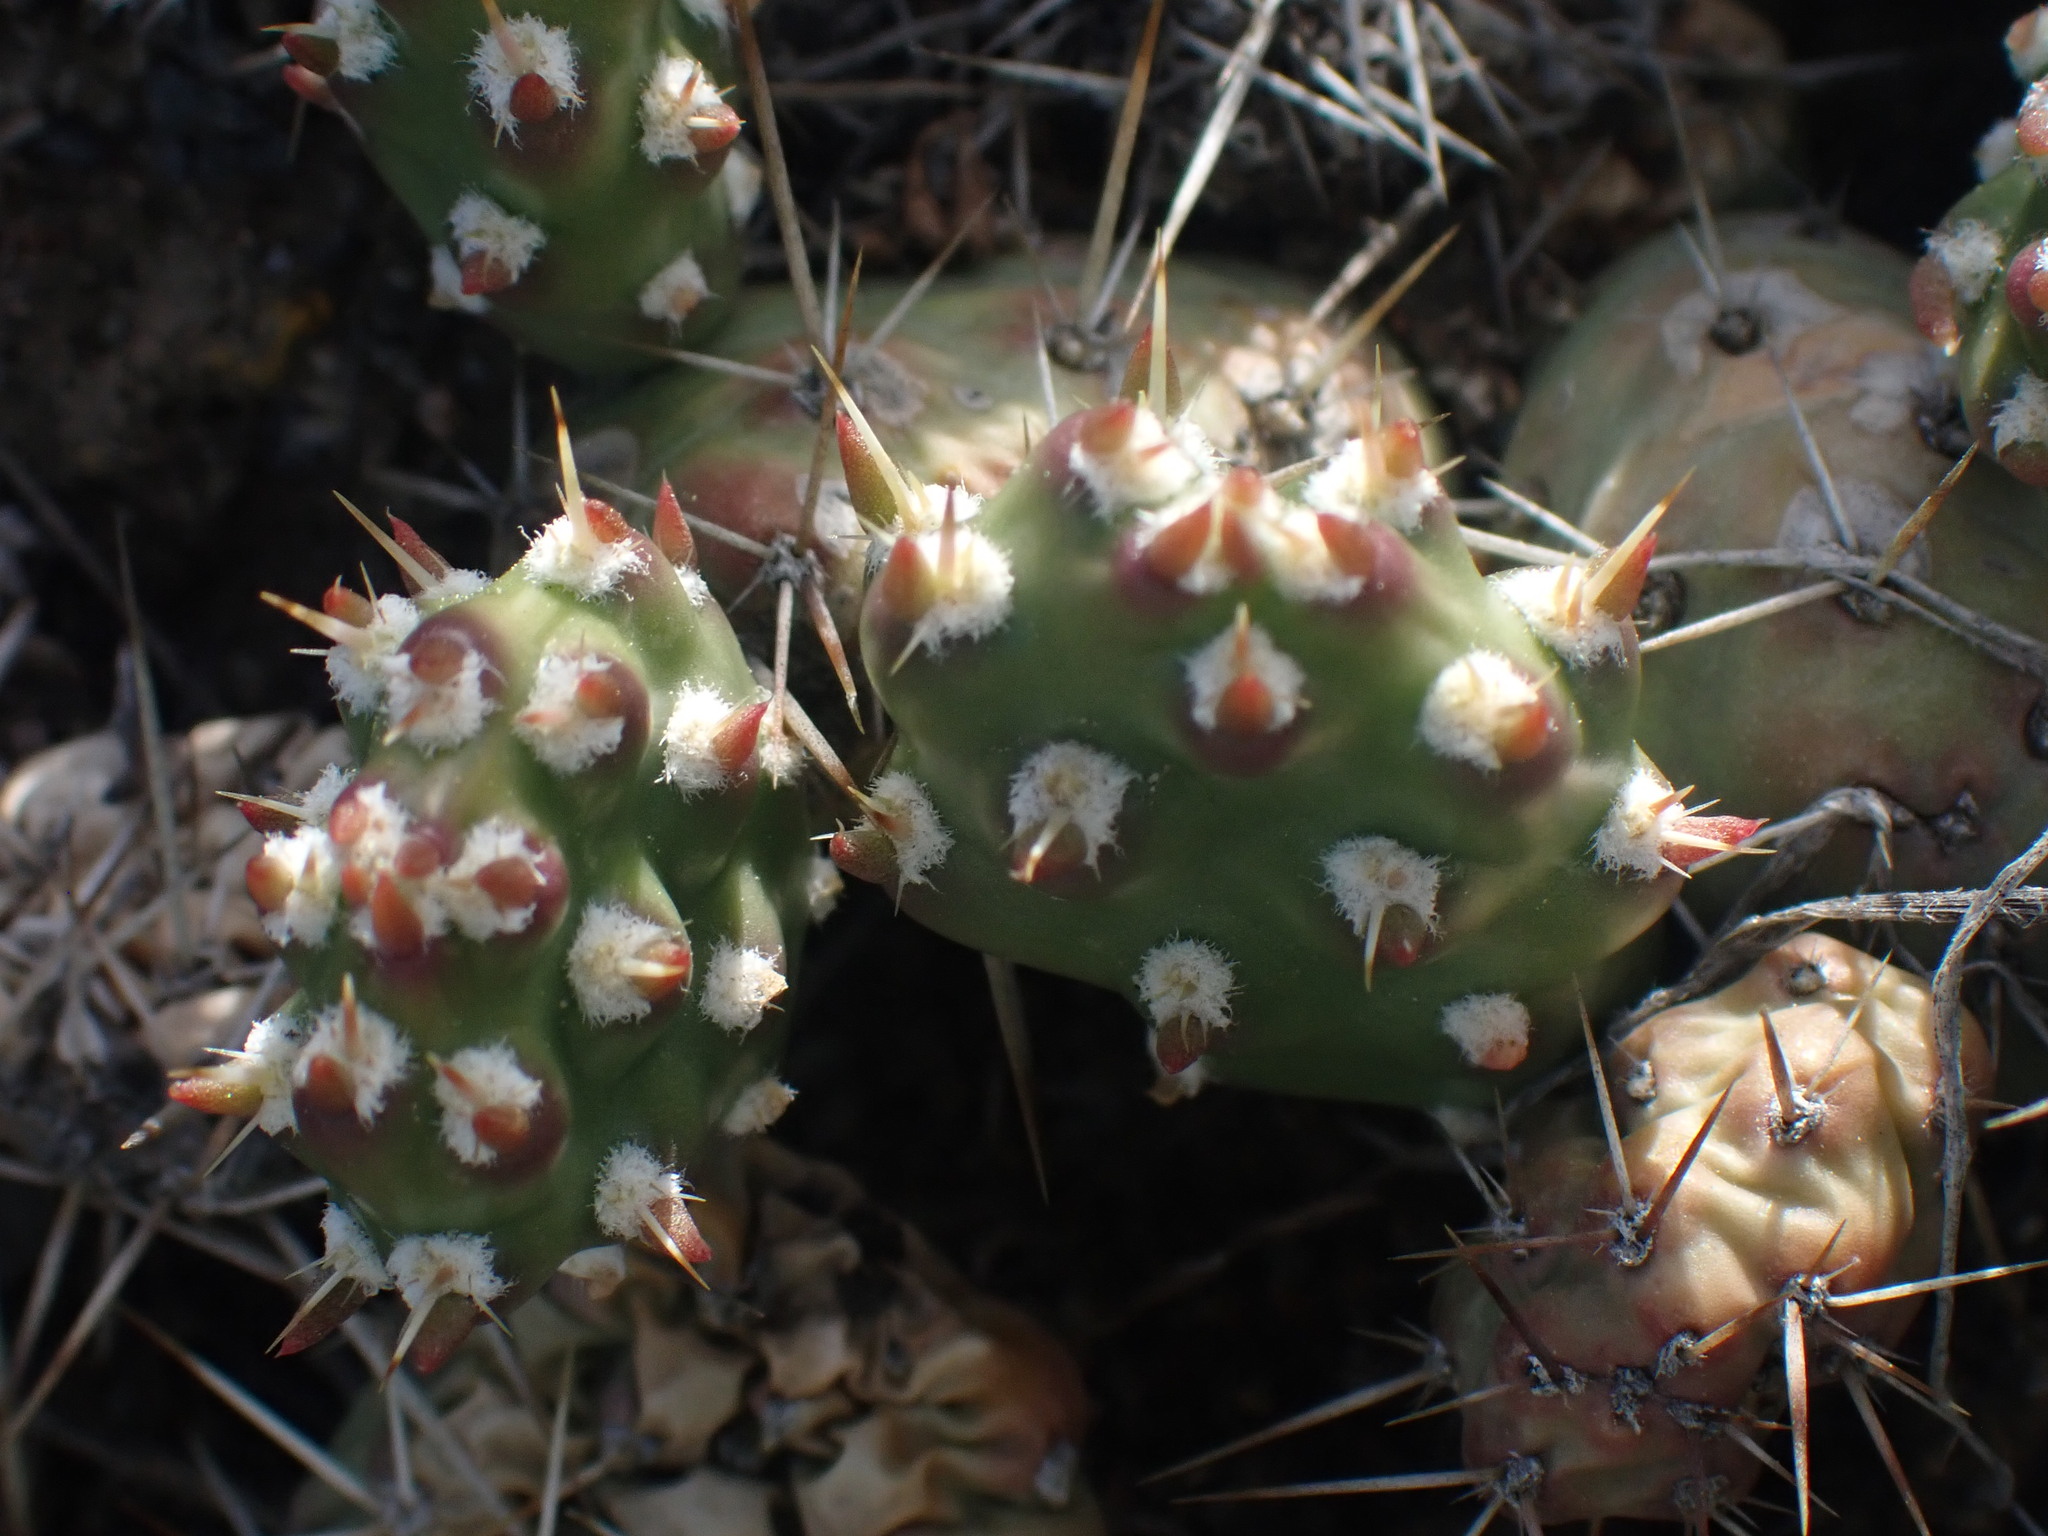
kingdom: Plantae
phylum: Tracheophyta
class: Magnoliopsida
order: Caryophyllales
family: Cactaceae
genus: Opuntia
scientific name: Opuntia fragilis
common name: Brittle cactus
